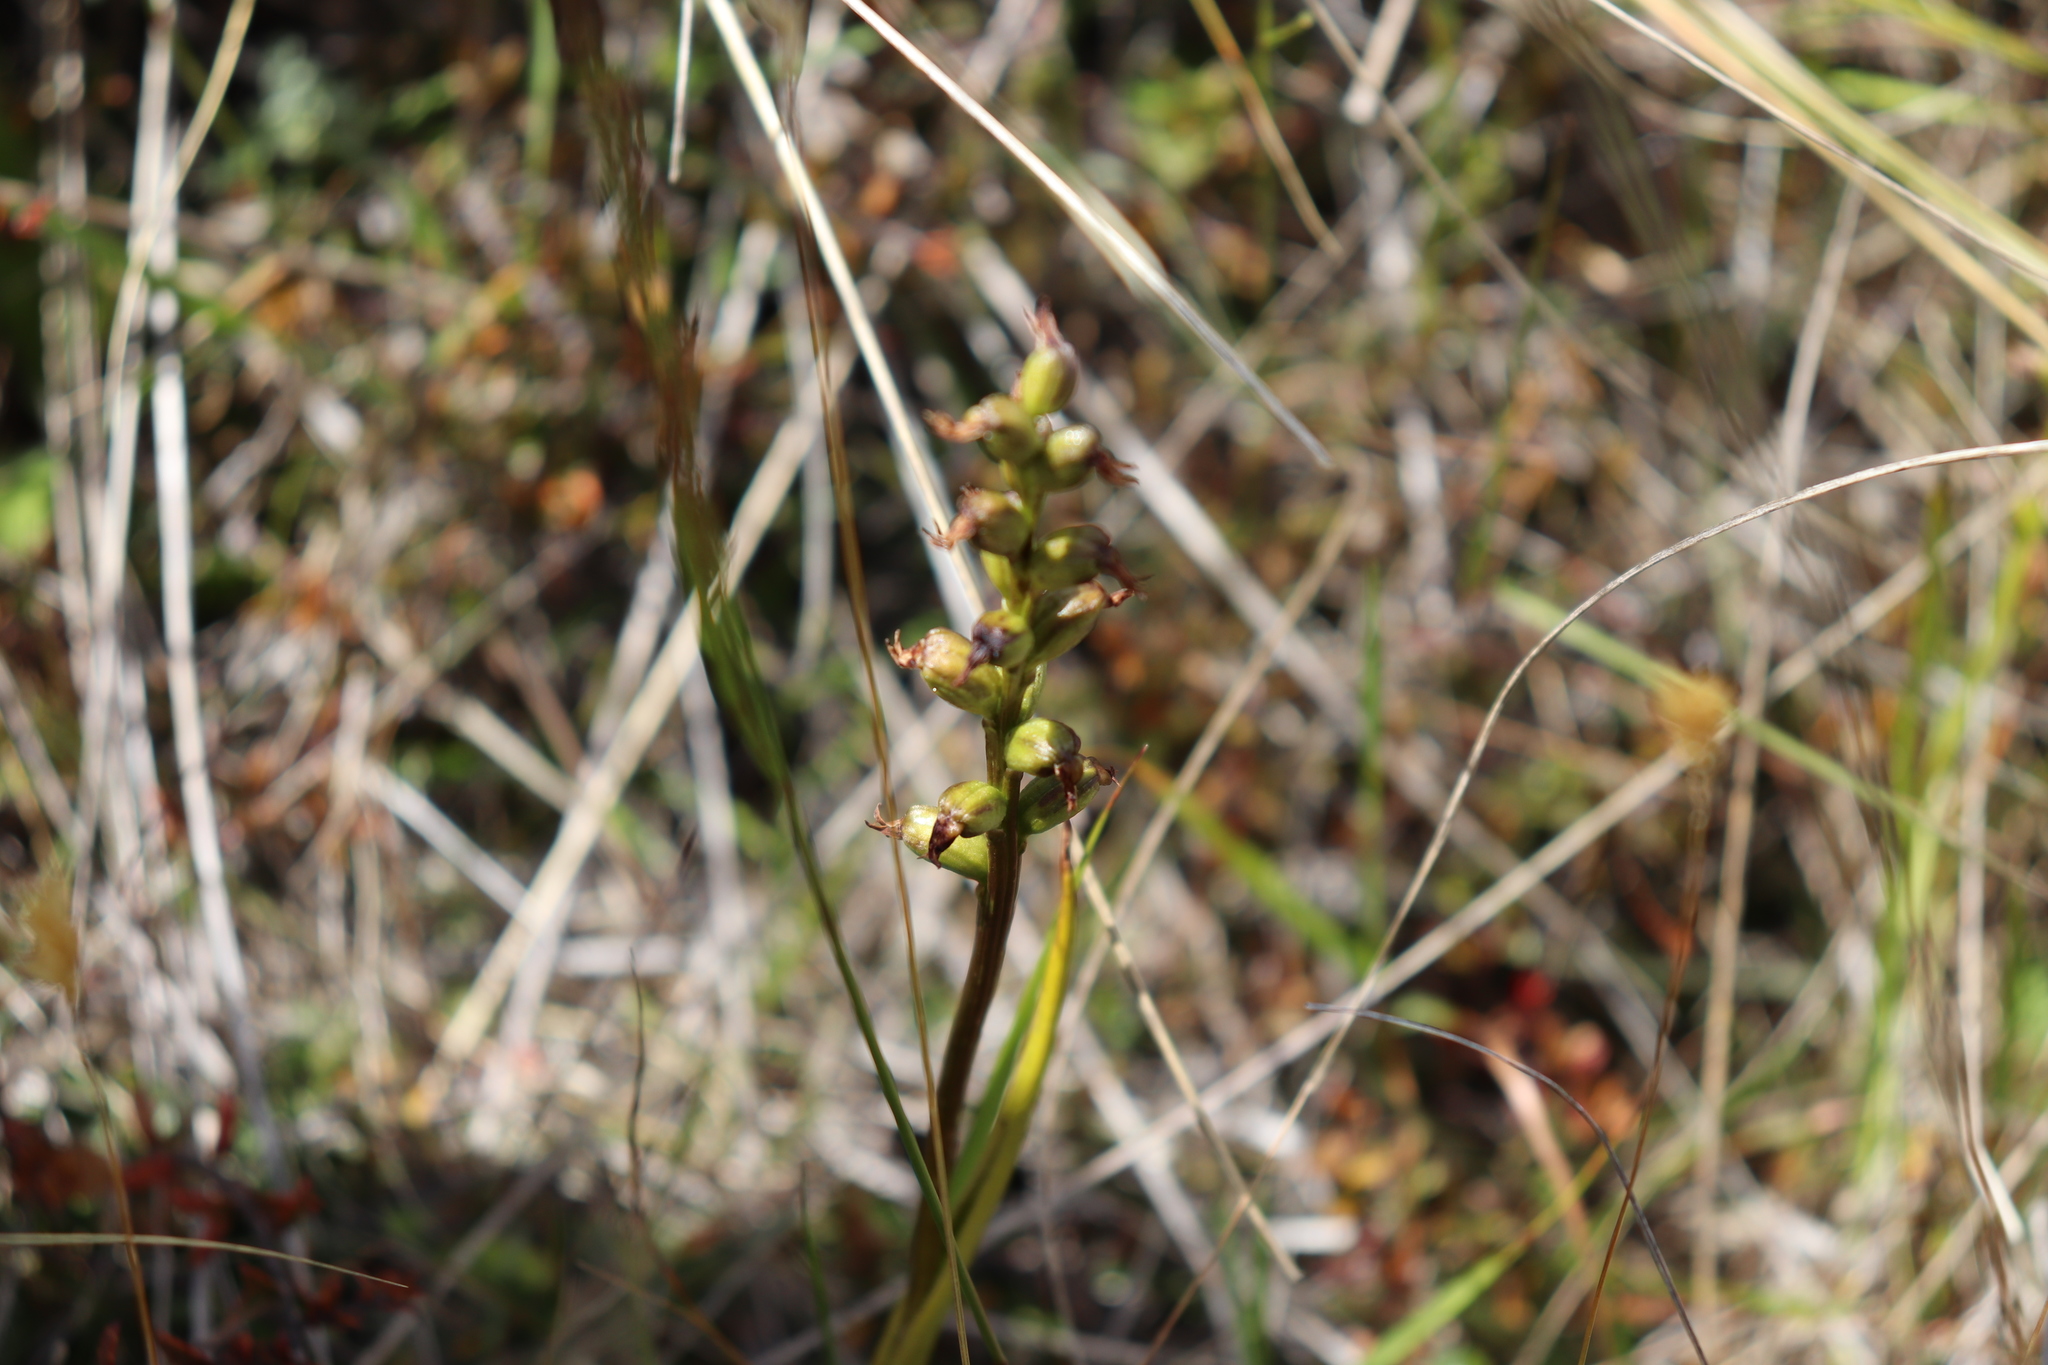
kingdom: Plantae
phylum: Tracheophyta
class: Liliopsida
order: Asparagales
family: Orchidaceae
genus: Prasophyllum
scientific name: Prasophyllum colensoi
